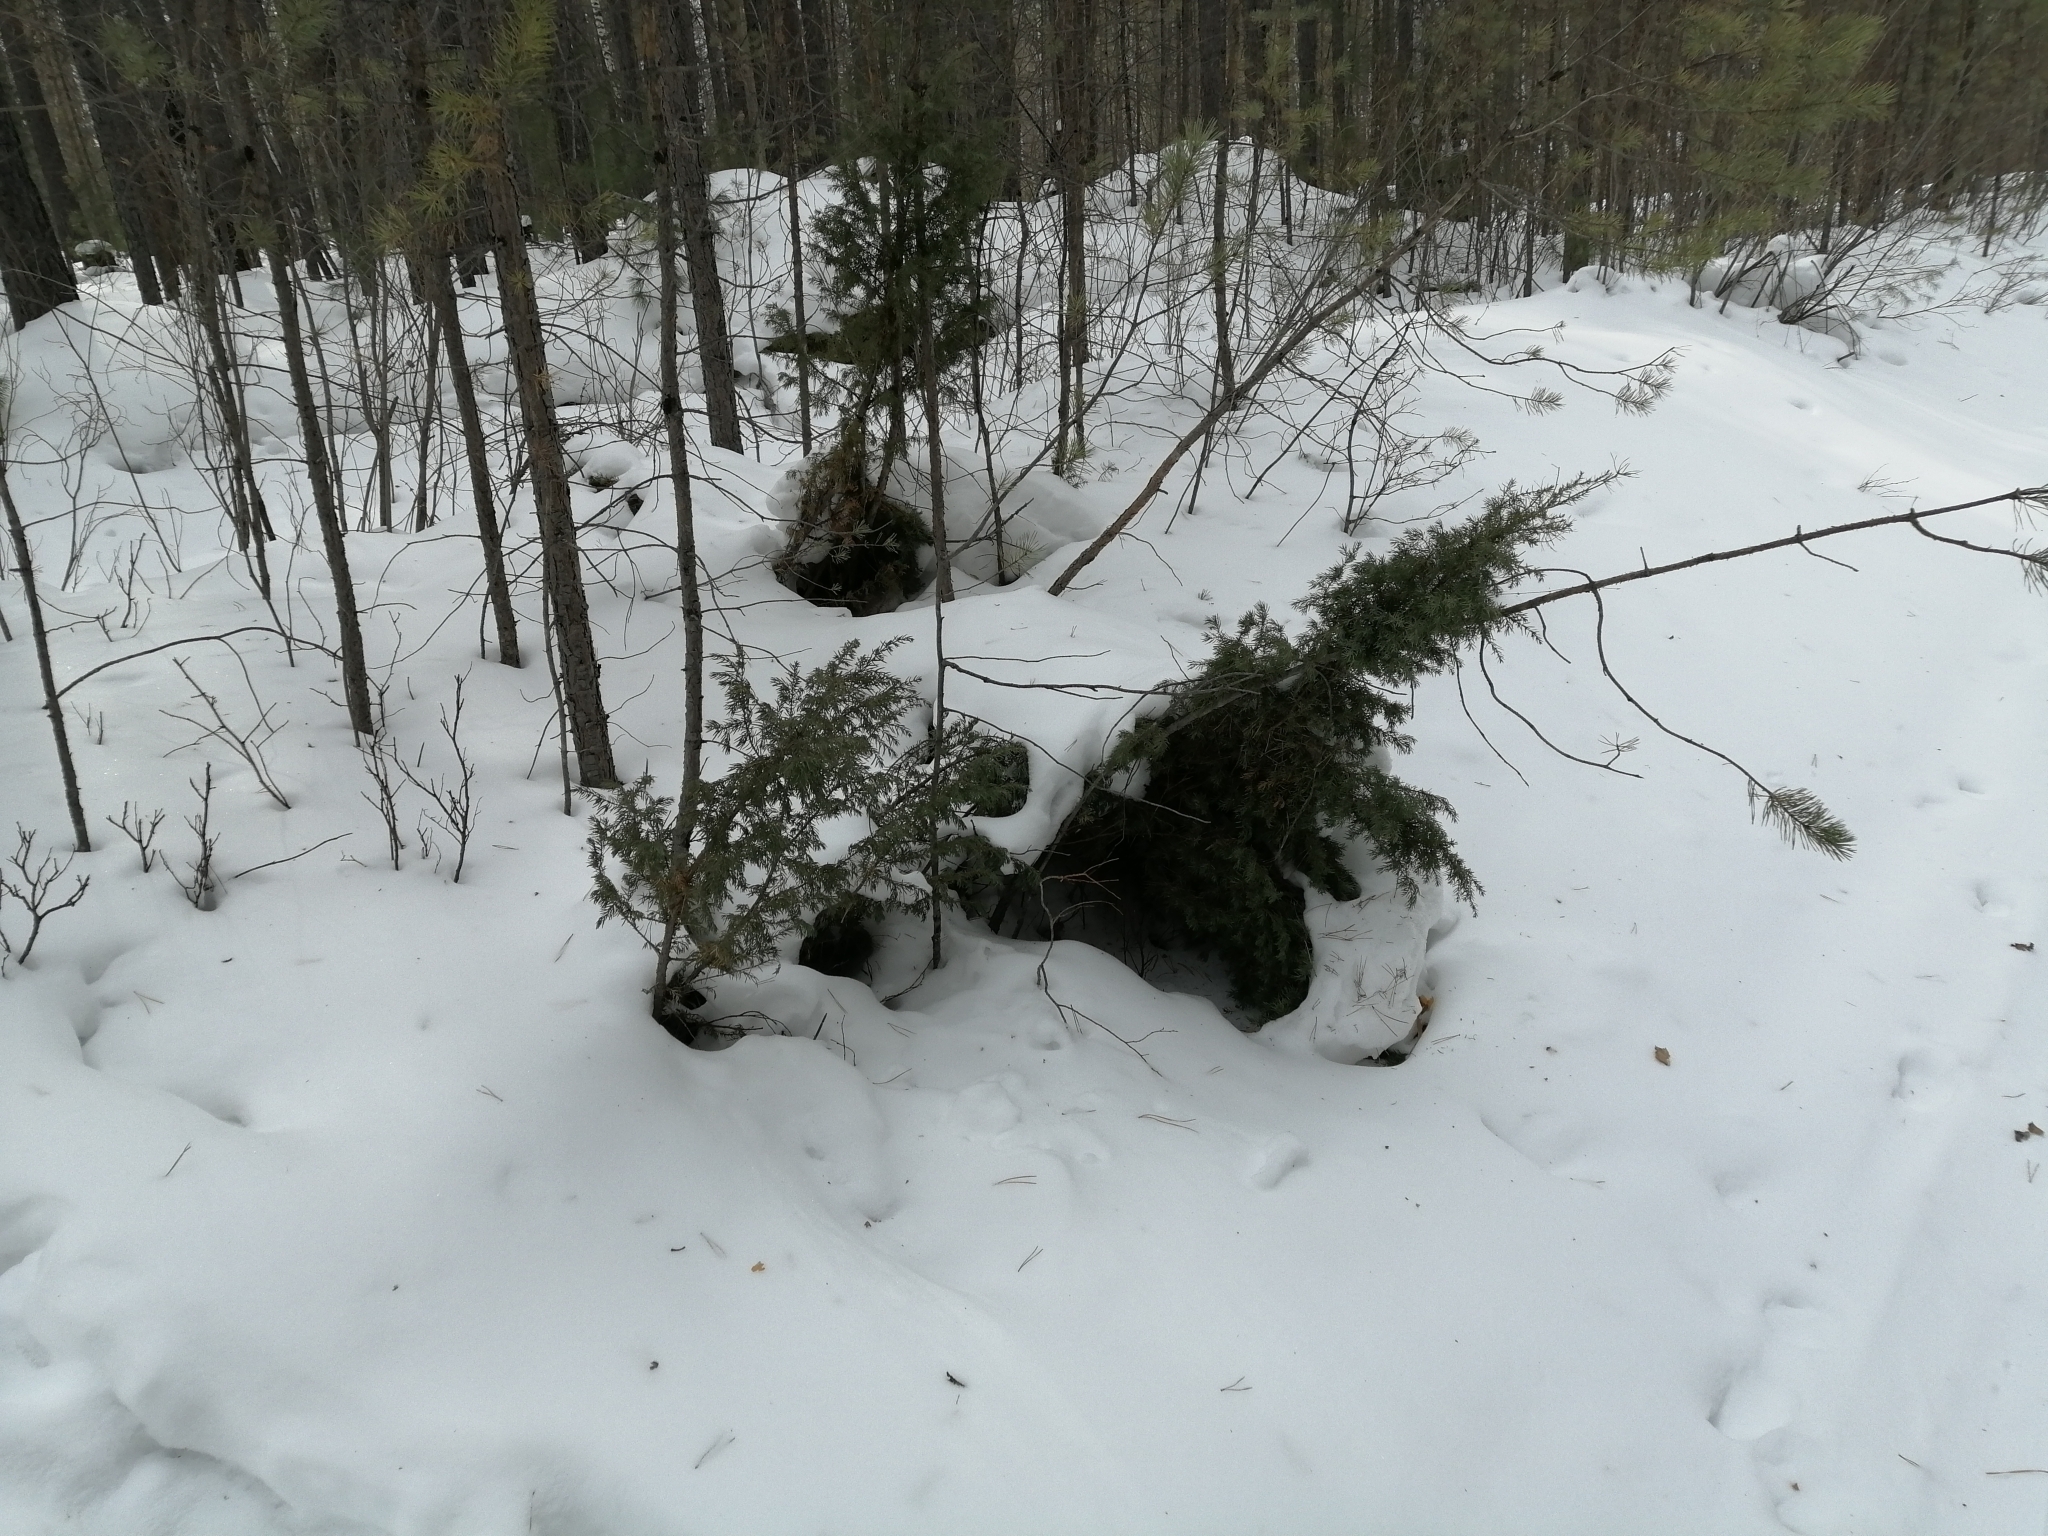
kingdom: Plantae
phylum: Tracheophyta
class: Pinopsida
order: Pinales
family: Cupressaceae
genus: Juniperus
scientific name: Juniperus communis
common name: Common juniper
